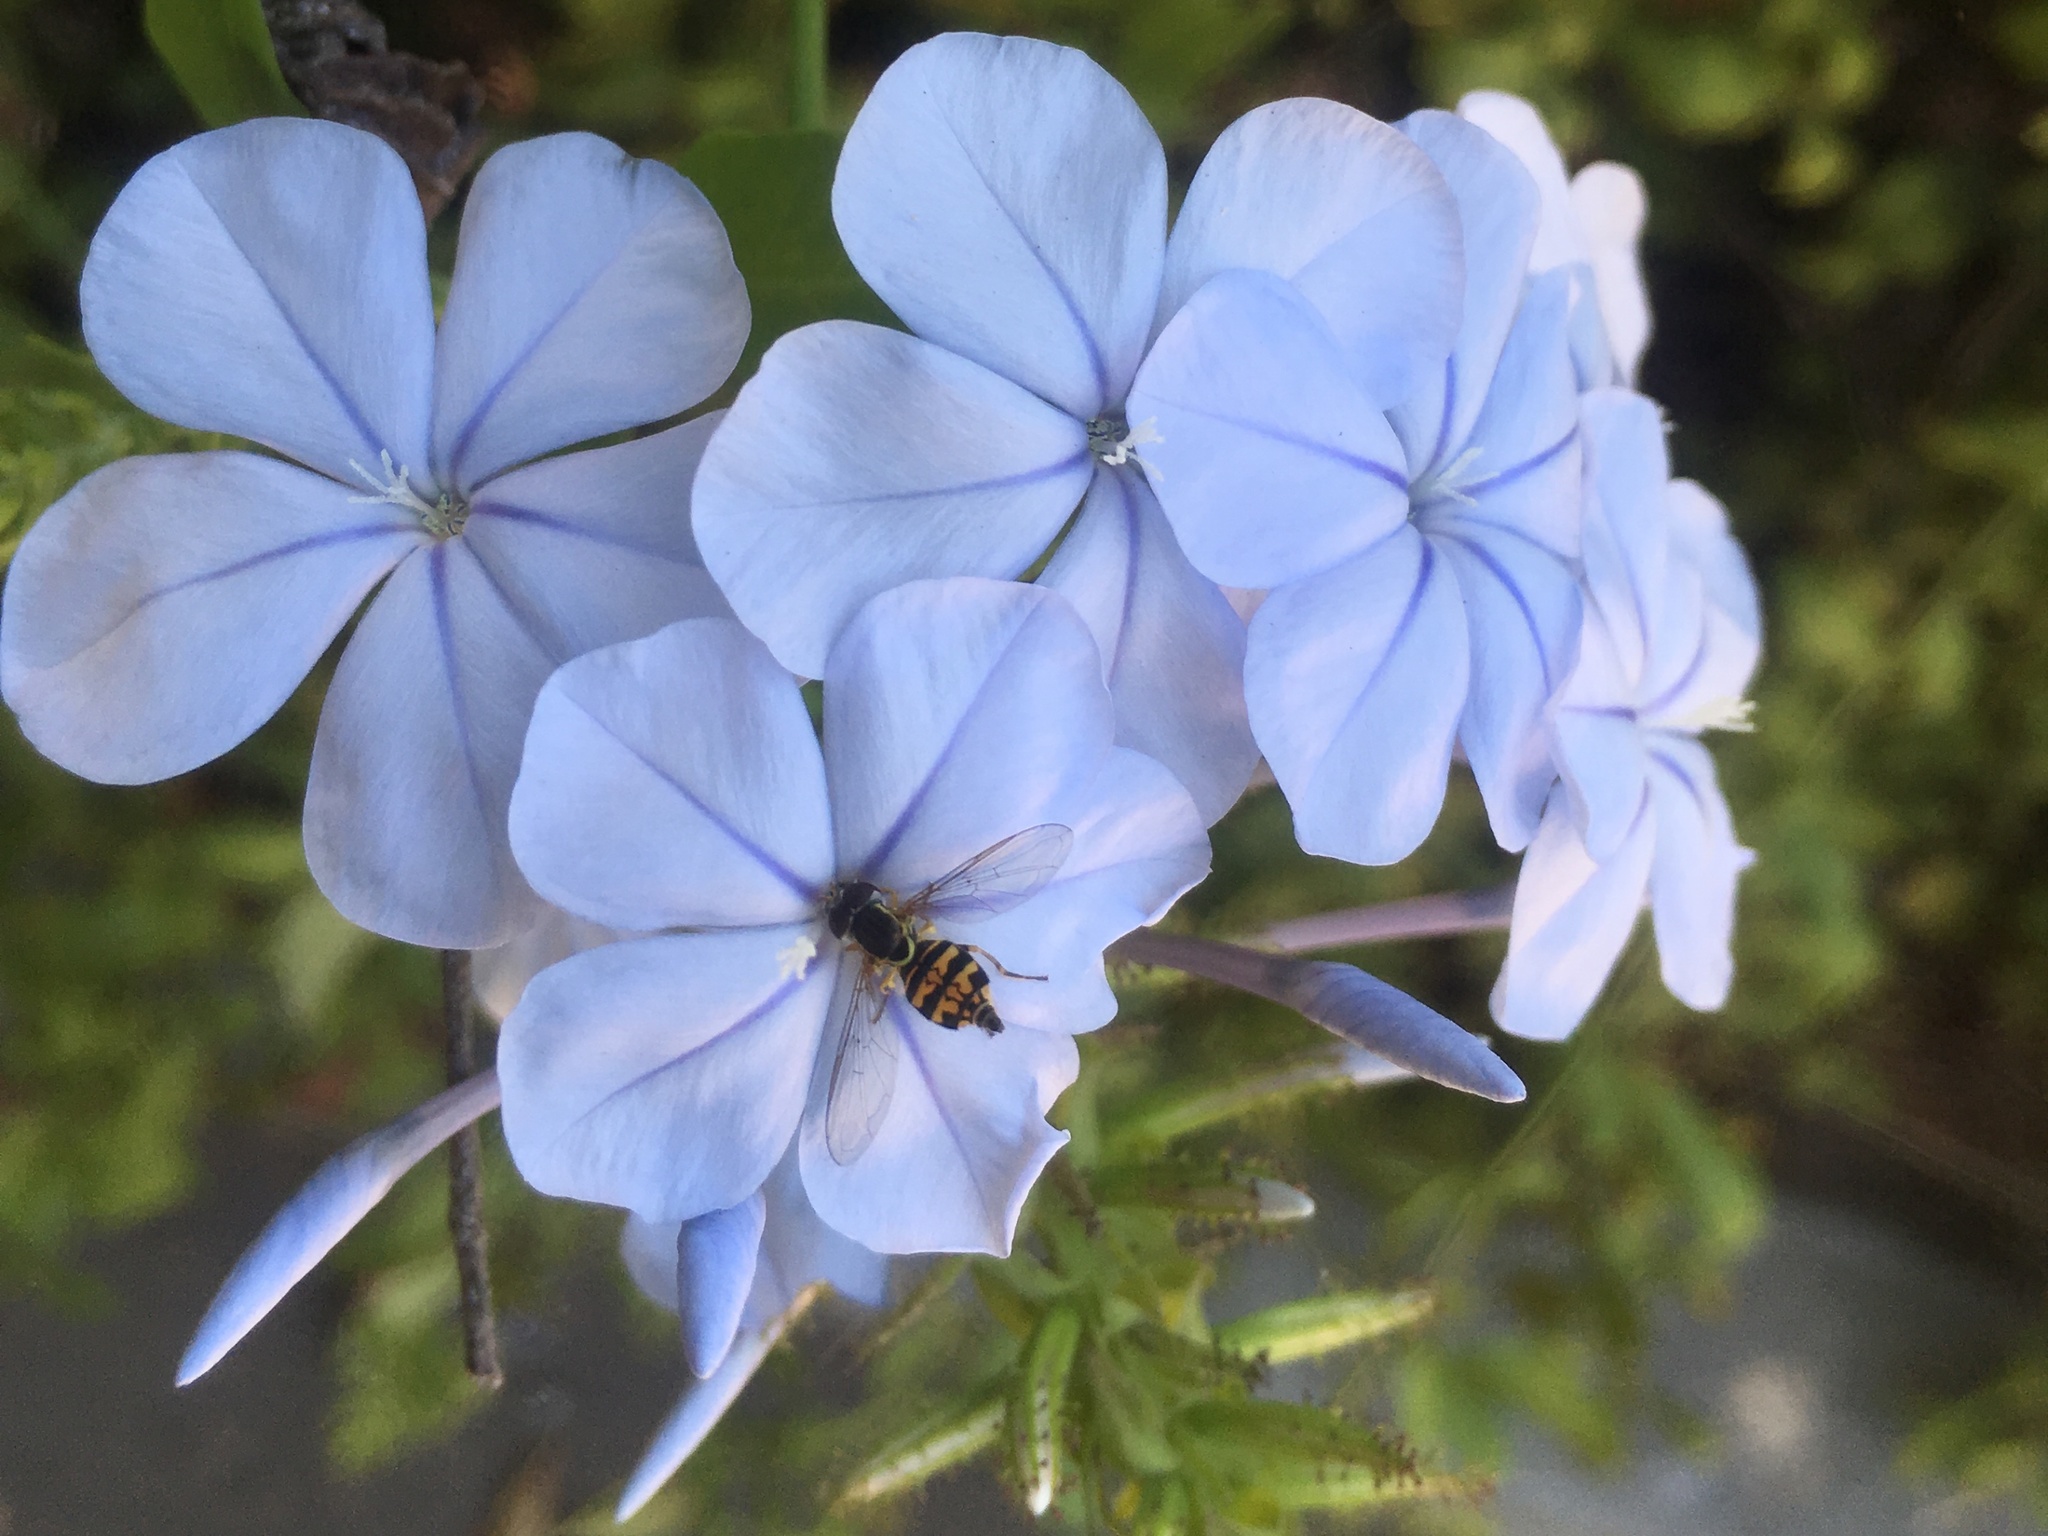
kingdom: Animalia
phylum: Arthropoda
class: Insecta
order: Diptera
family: Syrphidae
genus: Toxomerus
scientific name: Toxomerus occidentalis
